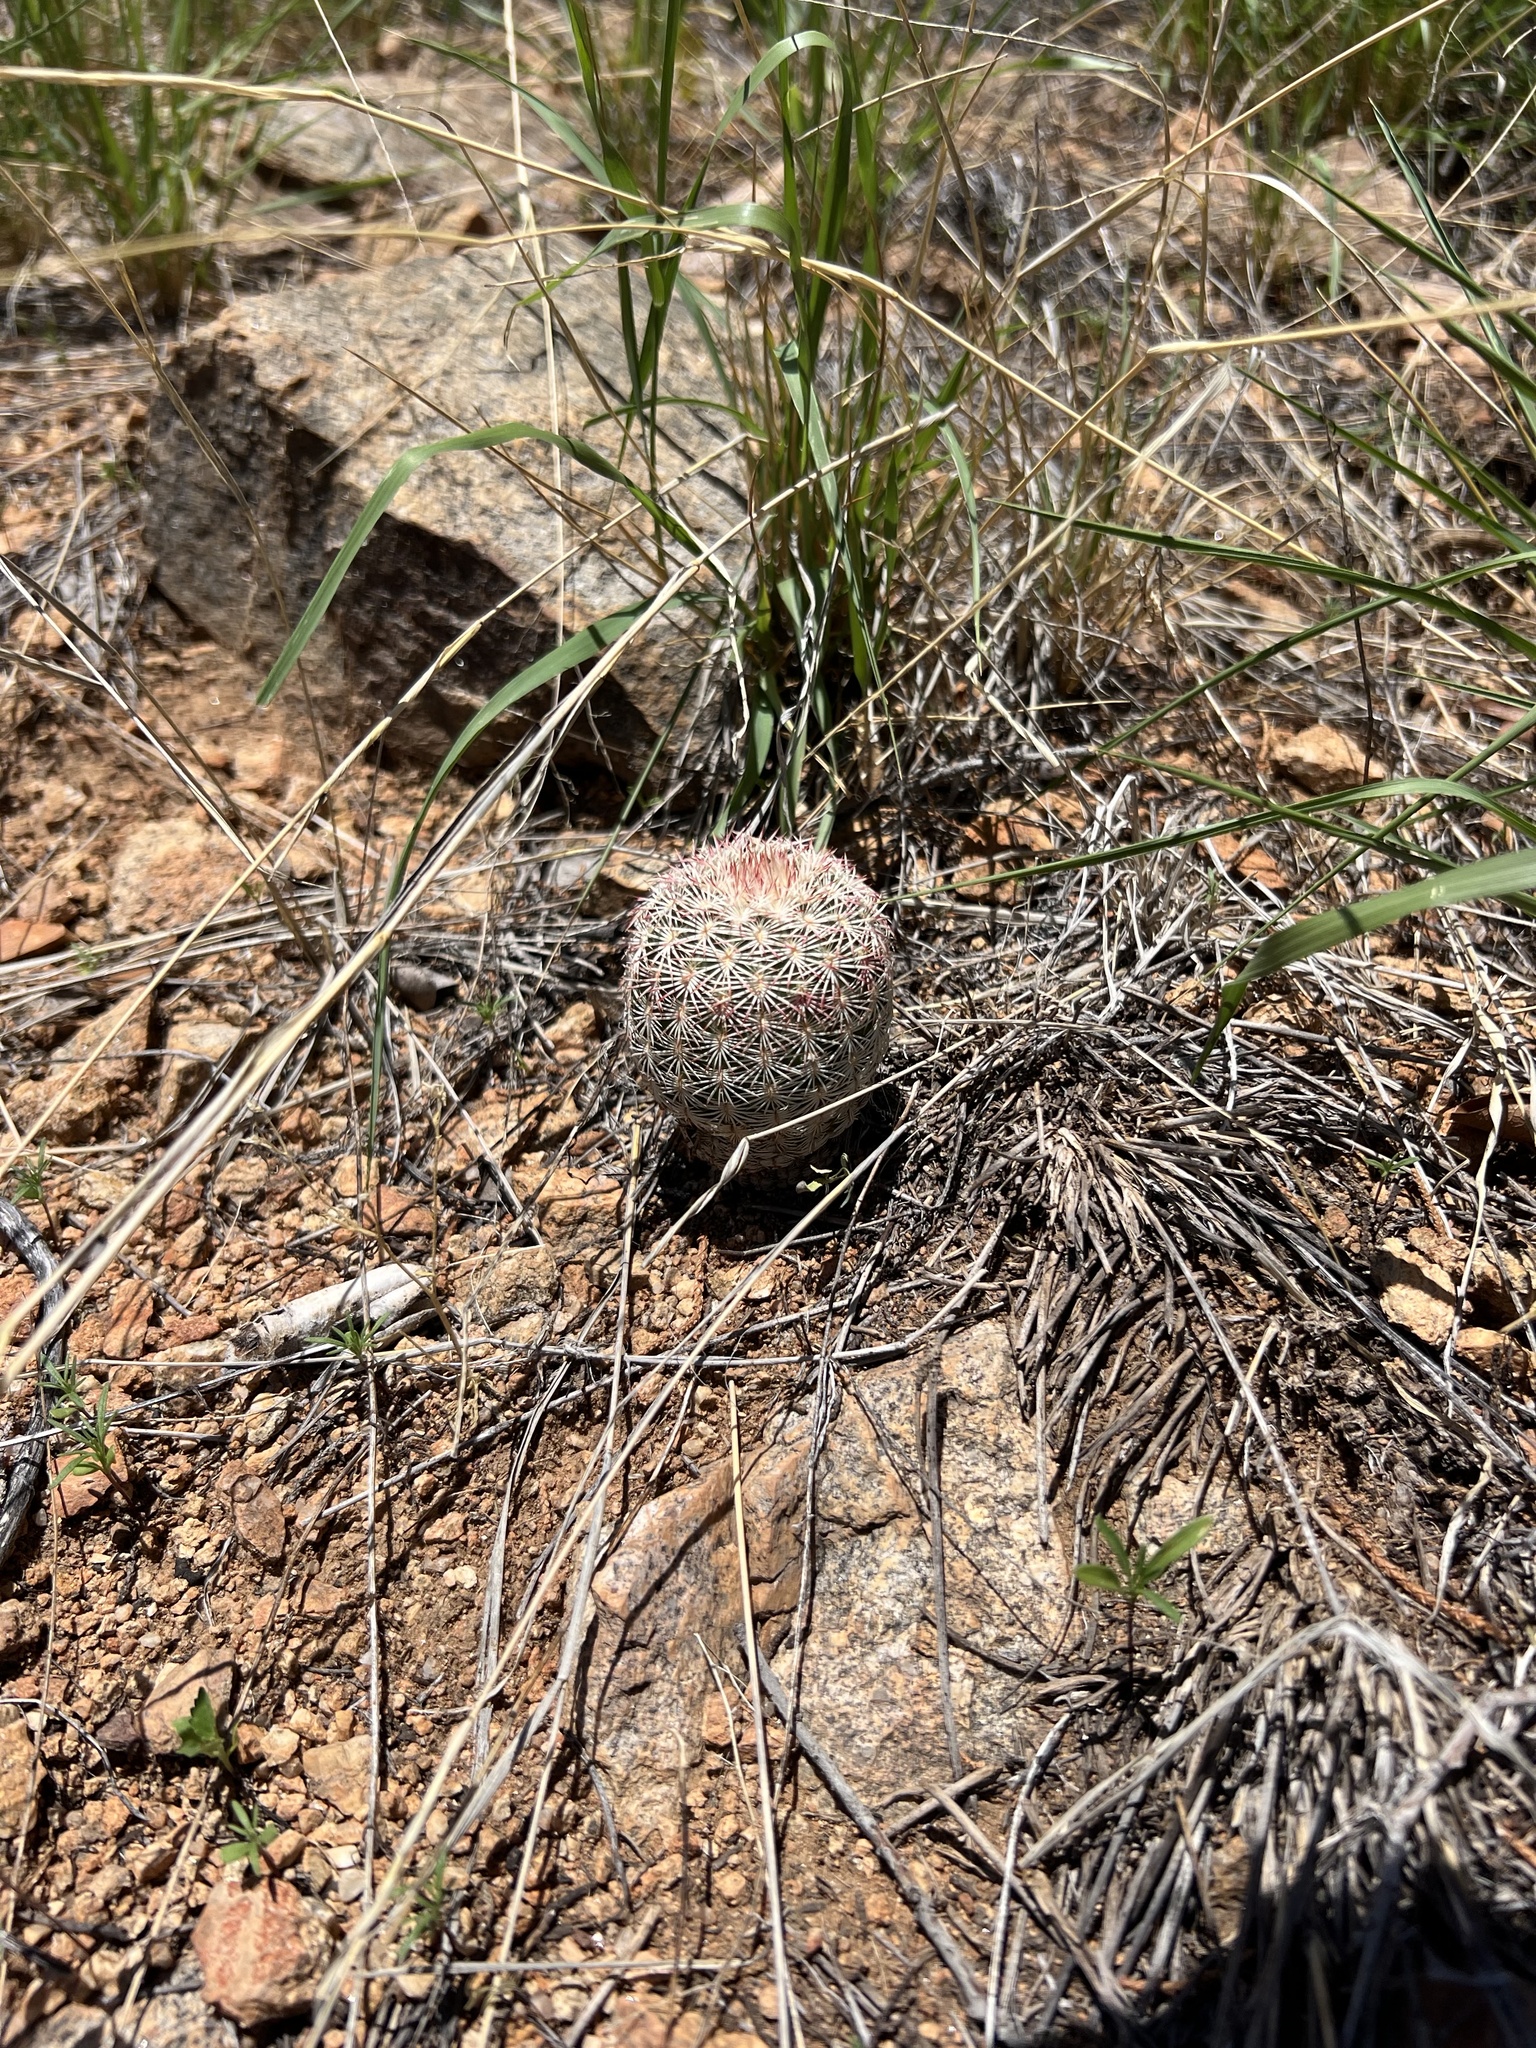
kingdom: Plantae
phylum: Tracheophyta
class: Magnoliopsida
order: Caryophyllales
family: Cactaceae
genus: Echinocereus
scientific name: Echinocereus rigidissimus
